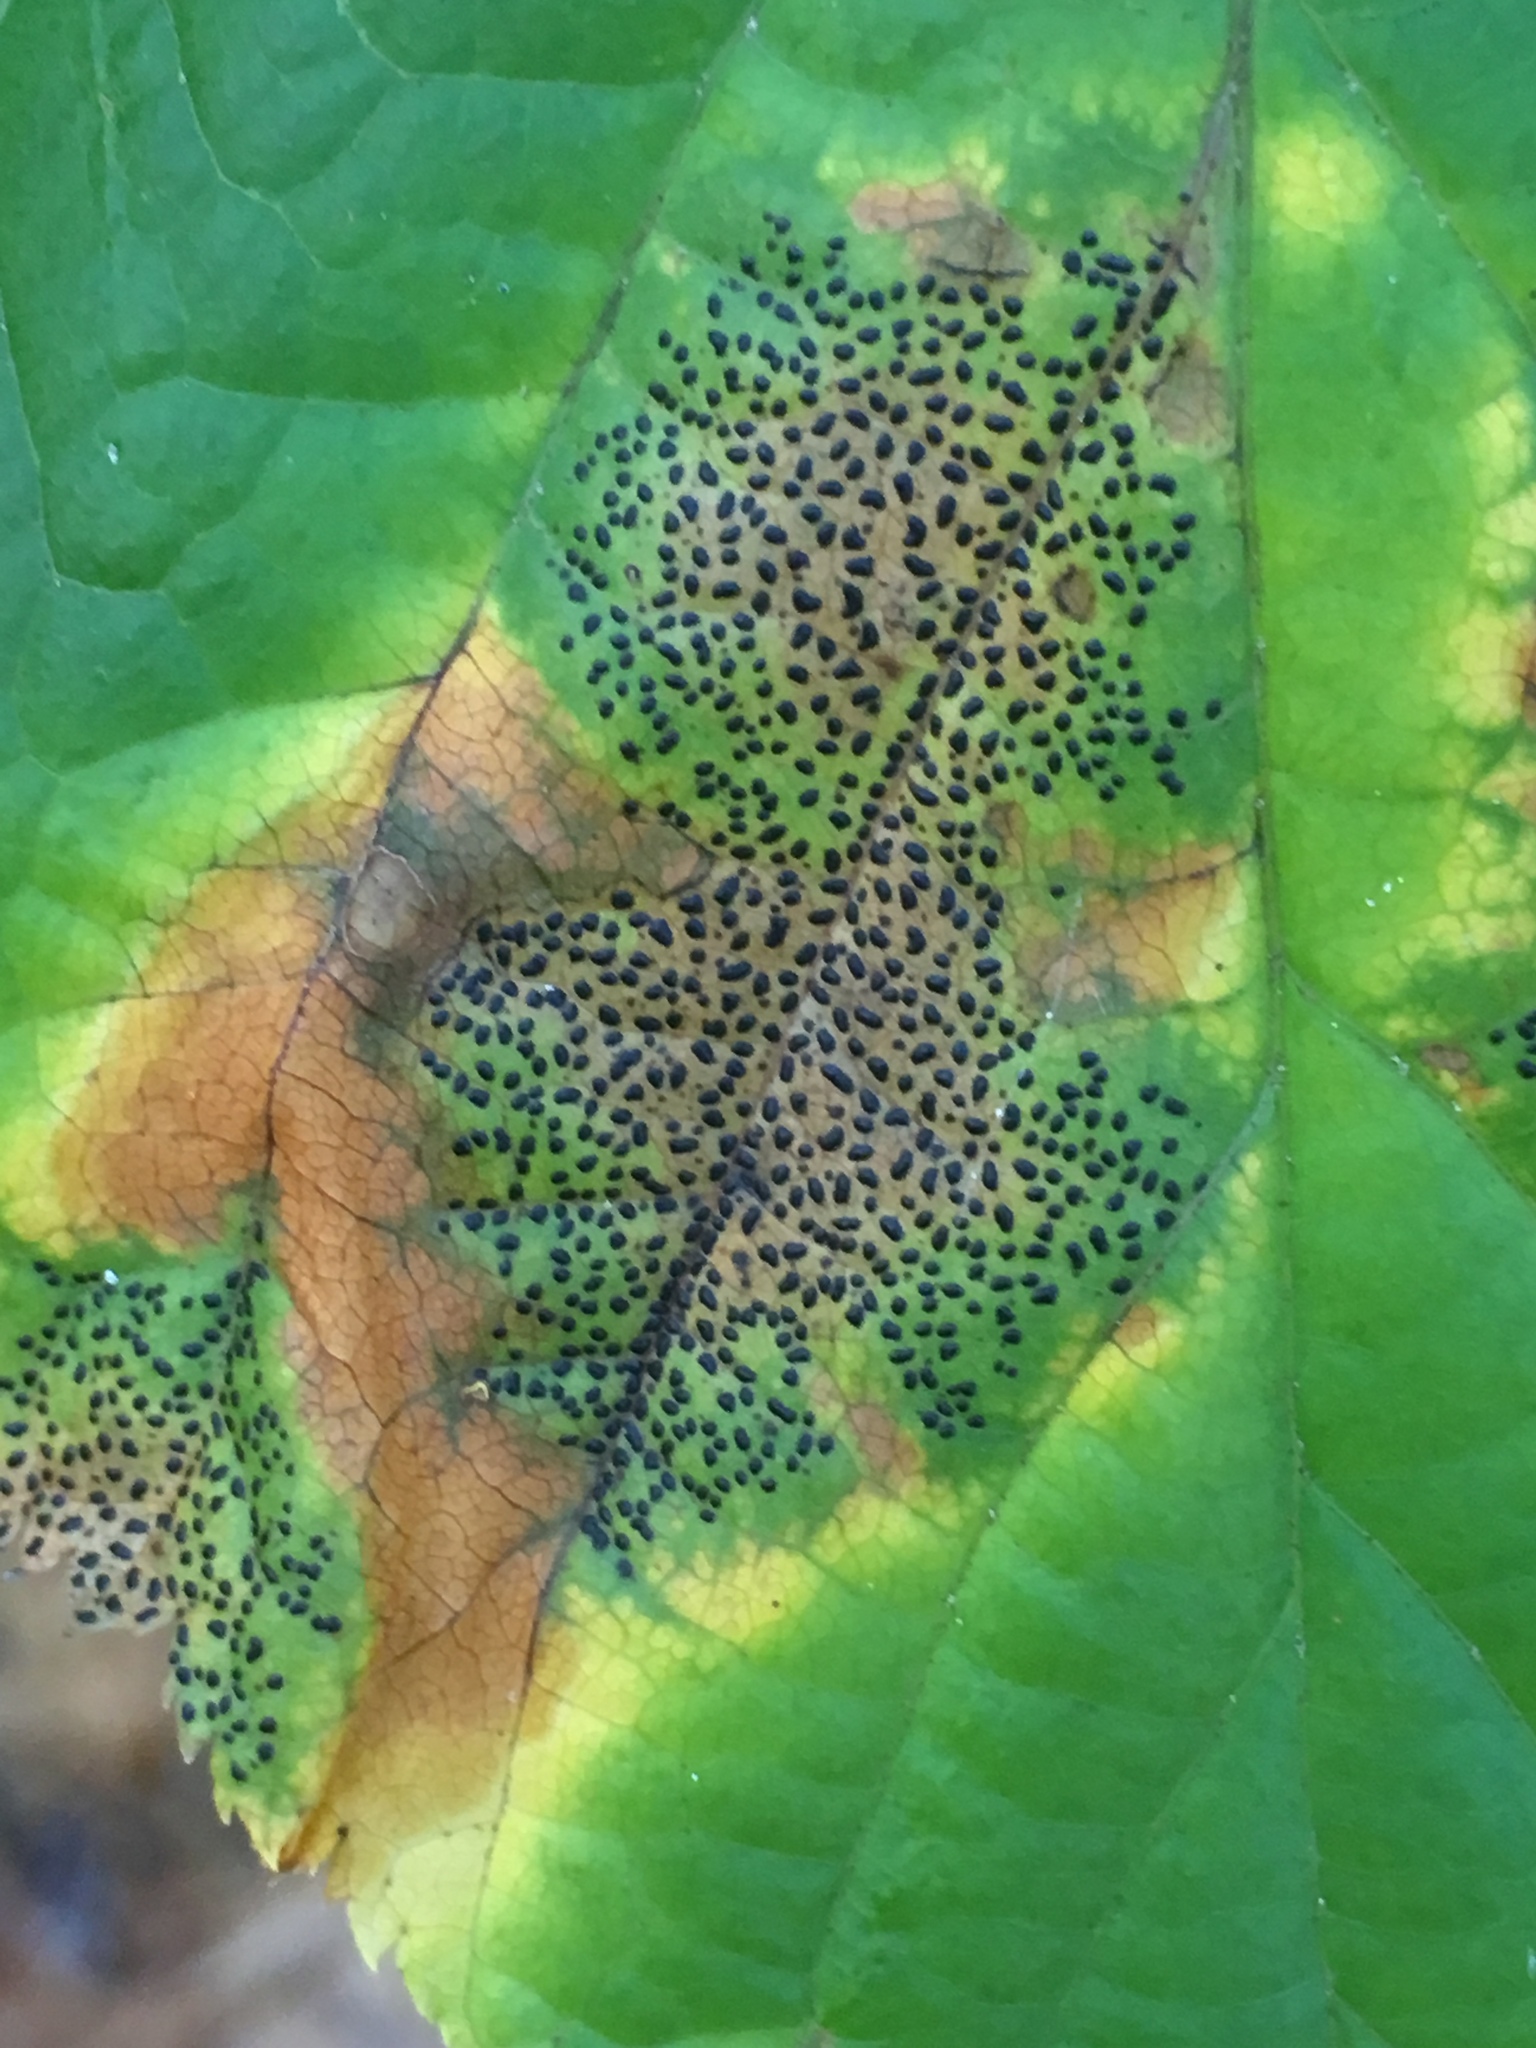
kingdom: Fungi
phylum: Ascomycota
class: Leotiomycetes
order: Rhytismatales
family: Rhytismataceae
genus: Rhytisma
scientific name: Rhytisma punctatum
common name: Speckled tar spot
